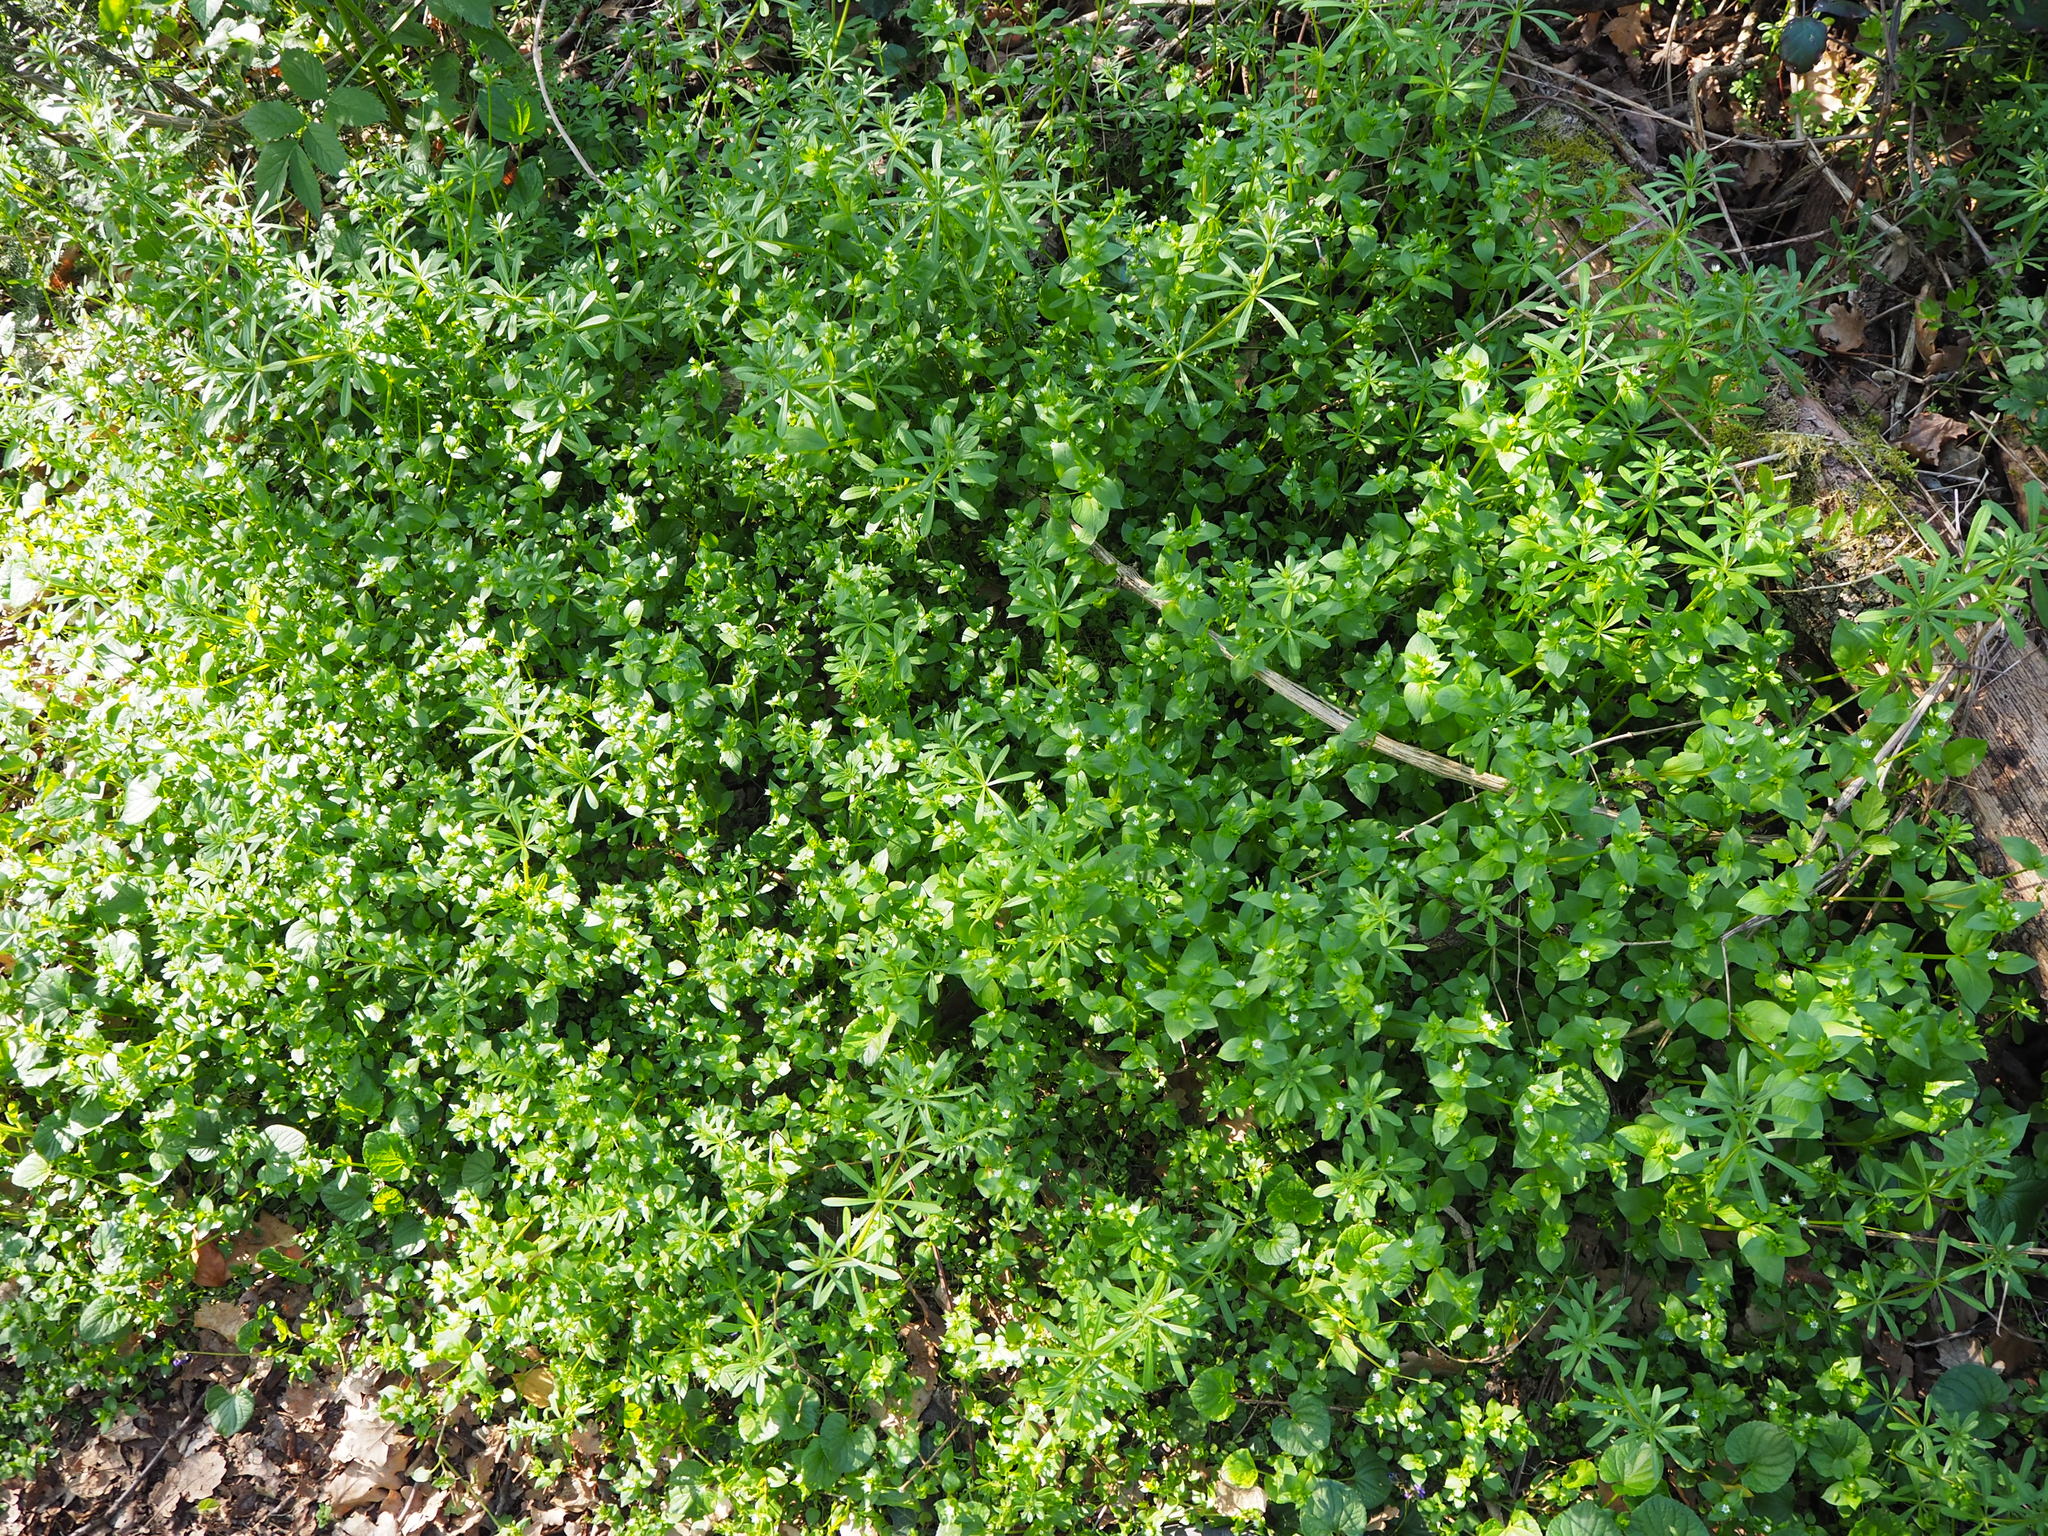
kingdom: Plantae
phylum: Tracheophyta
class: Magnoliopsida
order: Gentianales
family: Rubiaceae
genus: Galium
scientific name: Galium aparine
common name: Cleavers
